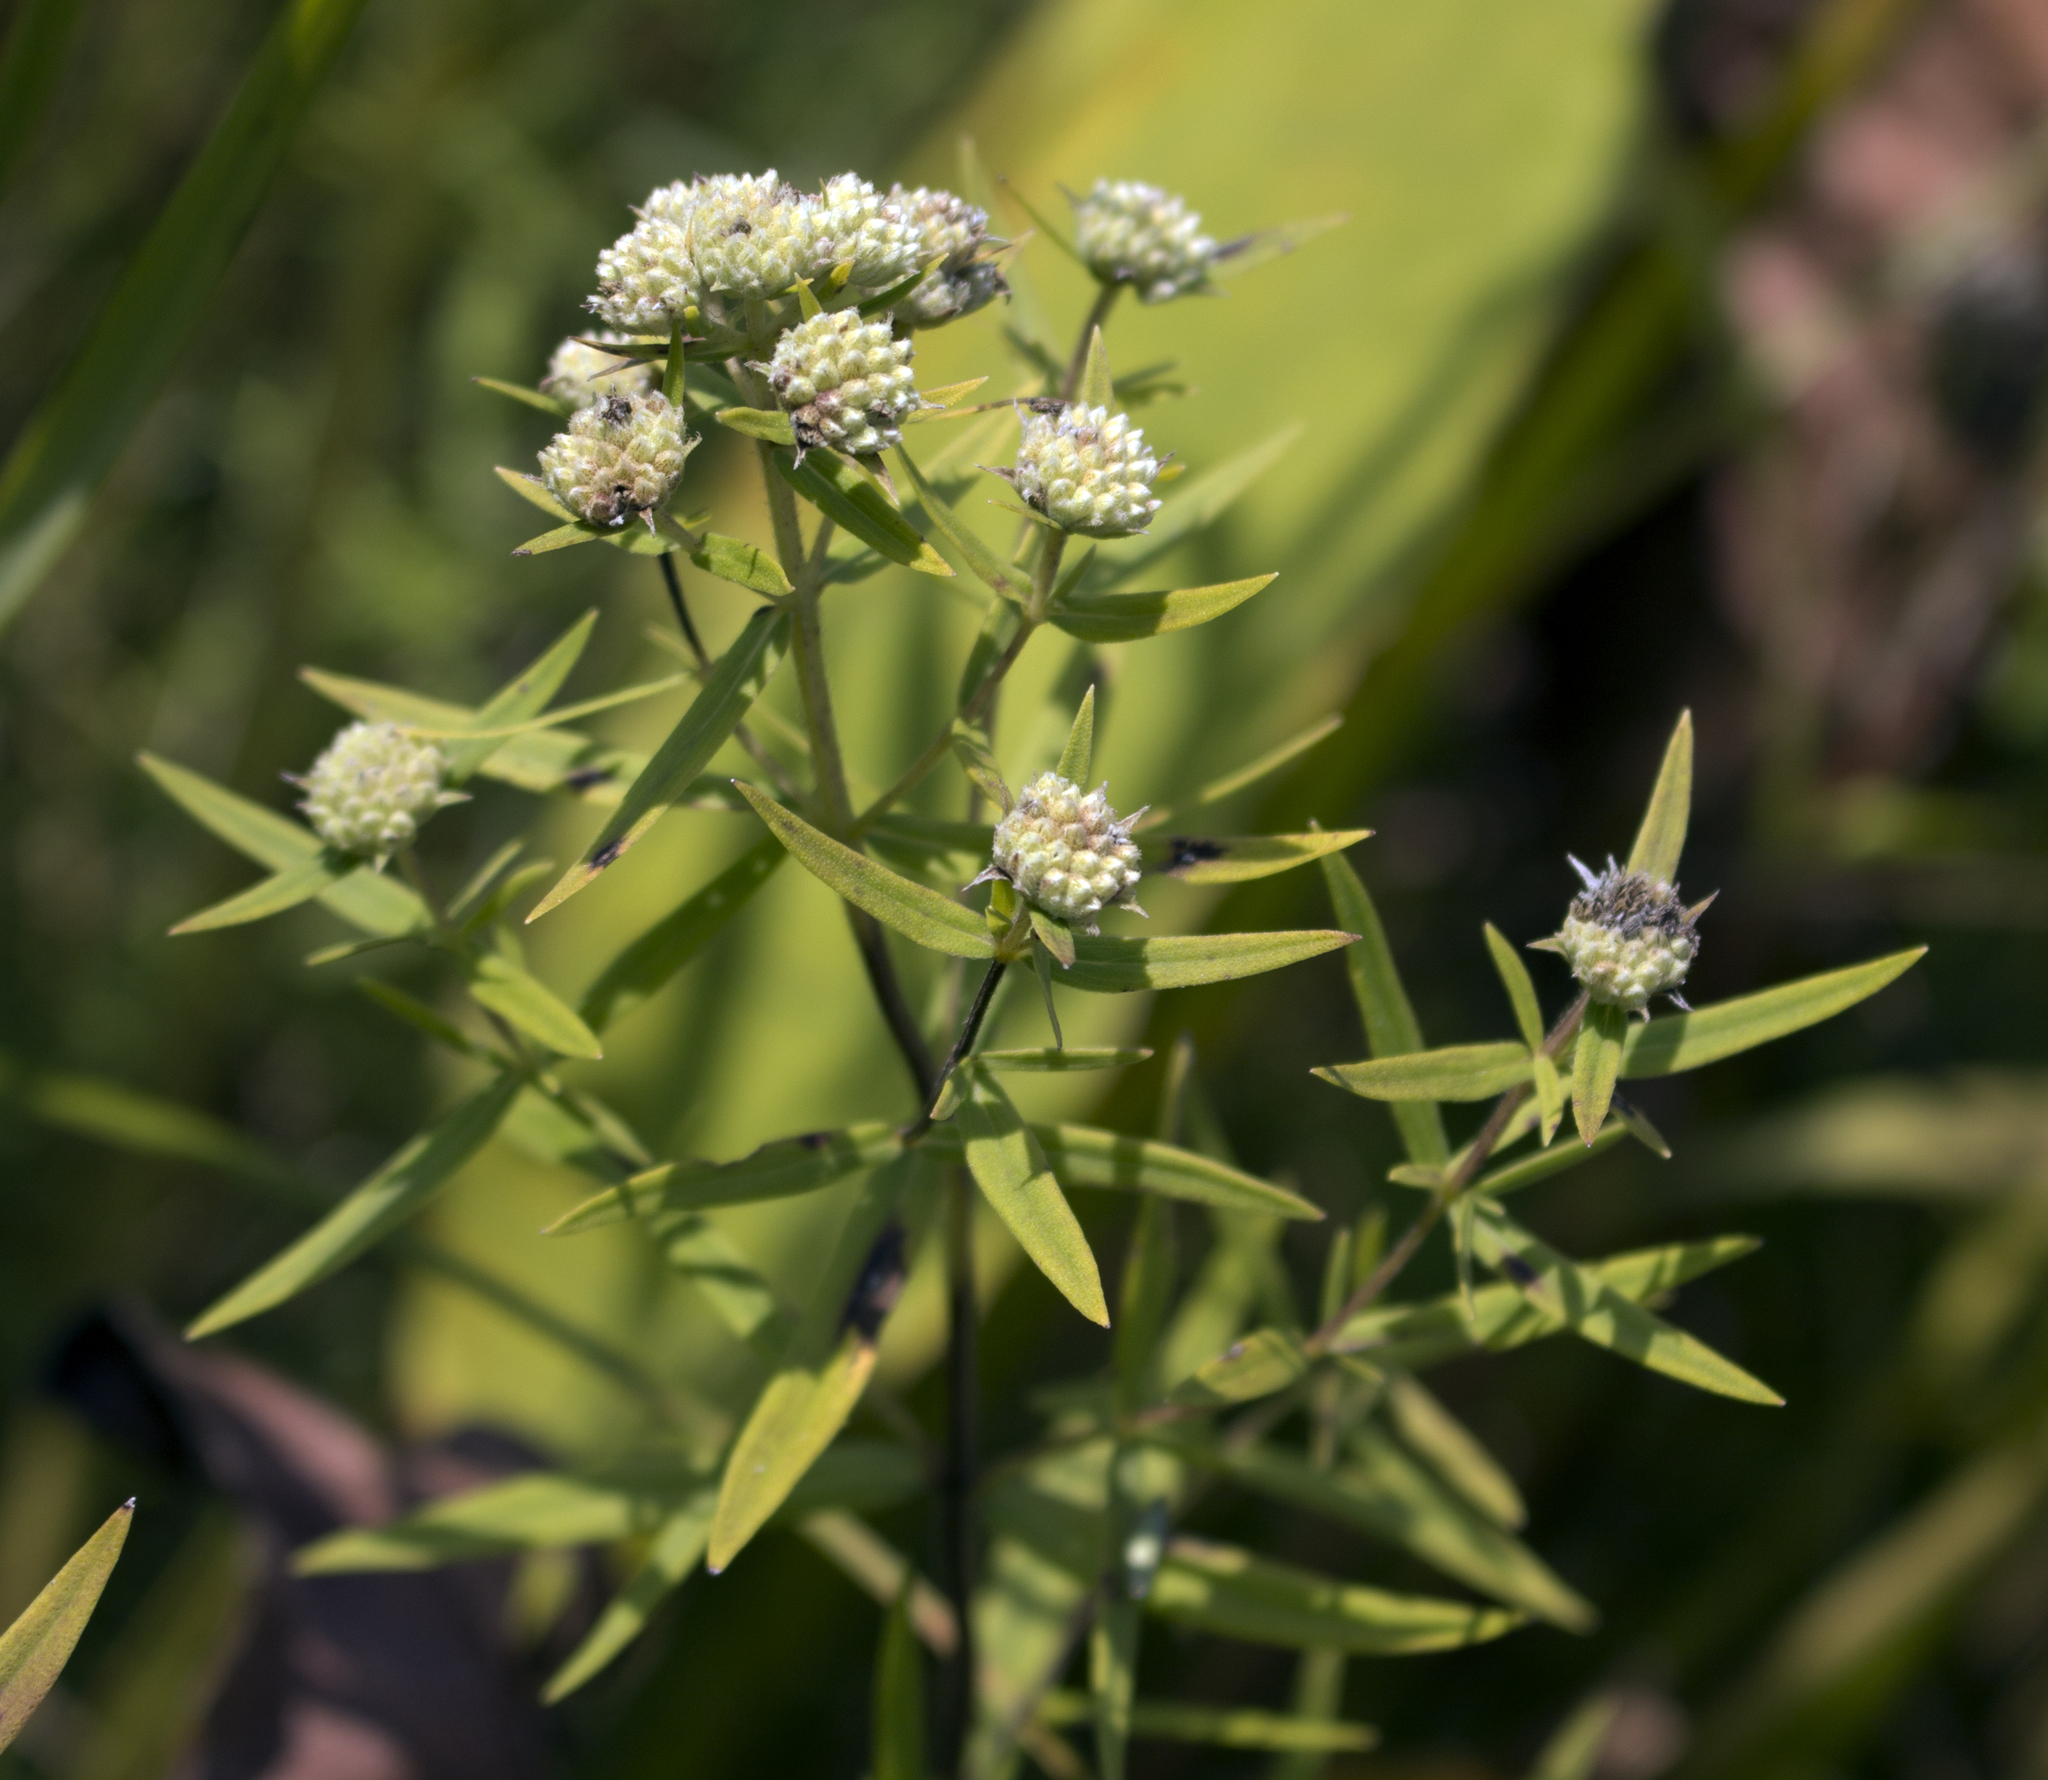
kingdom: Plantae
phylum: Tracheophyta
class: Magnoliopsida
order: Lamiales
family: Lamiaceae
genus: Pycnanthemum
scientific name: Pycnanthemum virginianum
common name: Virginia mountain-mint
